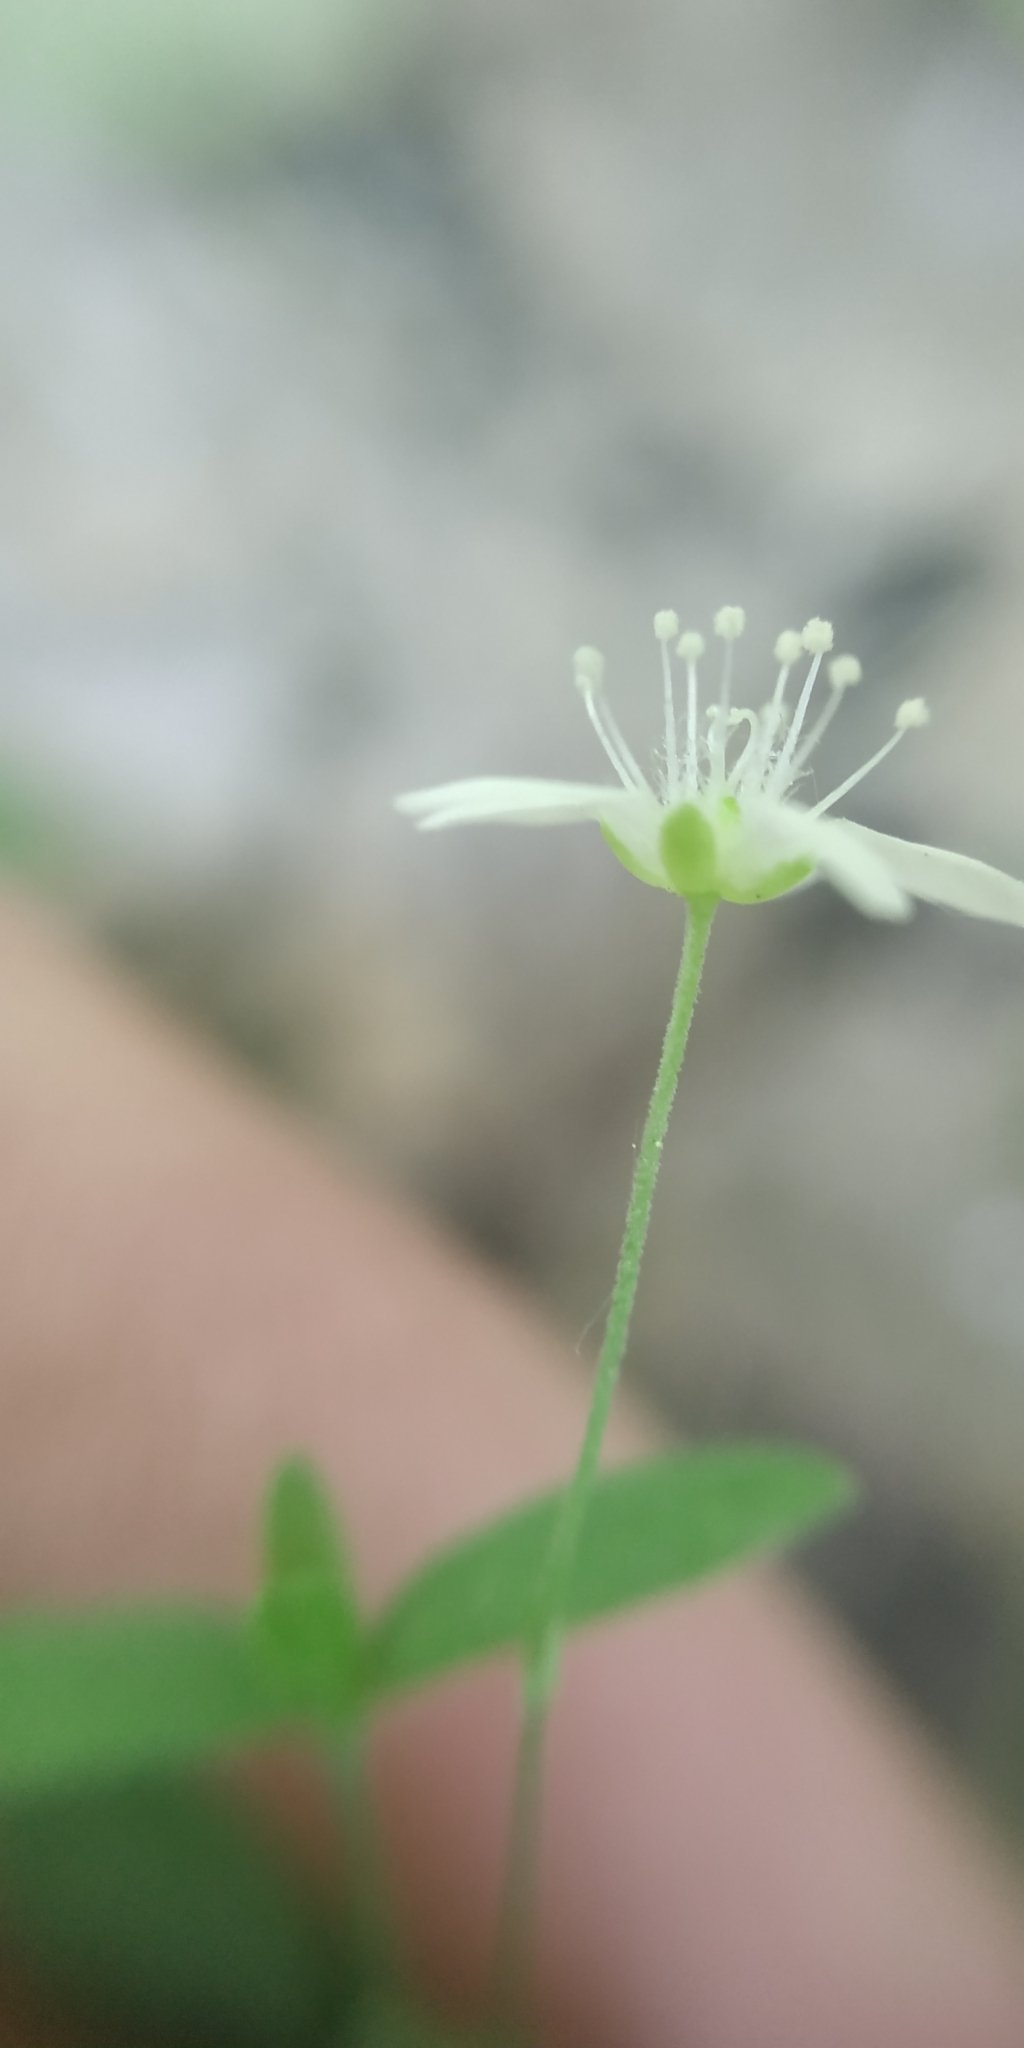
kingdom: Plantae
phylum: Tracheophyta
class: Magnoliopsida
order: Caryophyllales
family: Caryophyllaceae
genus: Moehringia
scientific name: Moehringia lateriflora
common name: Blunt-leaved sandwort
